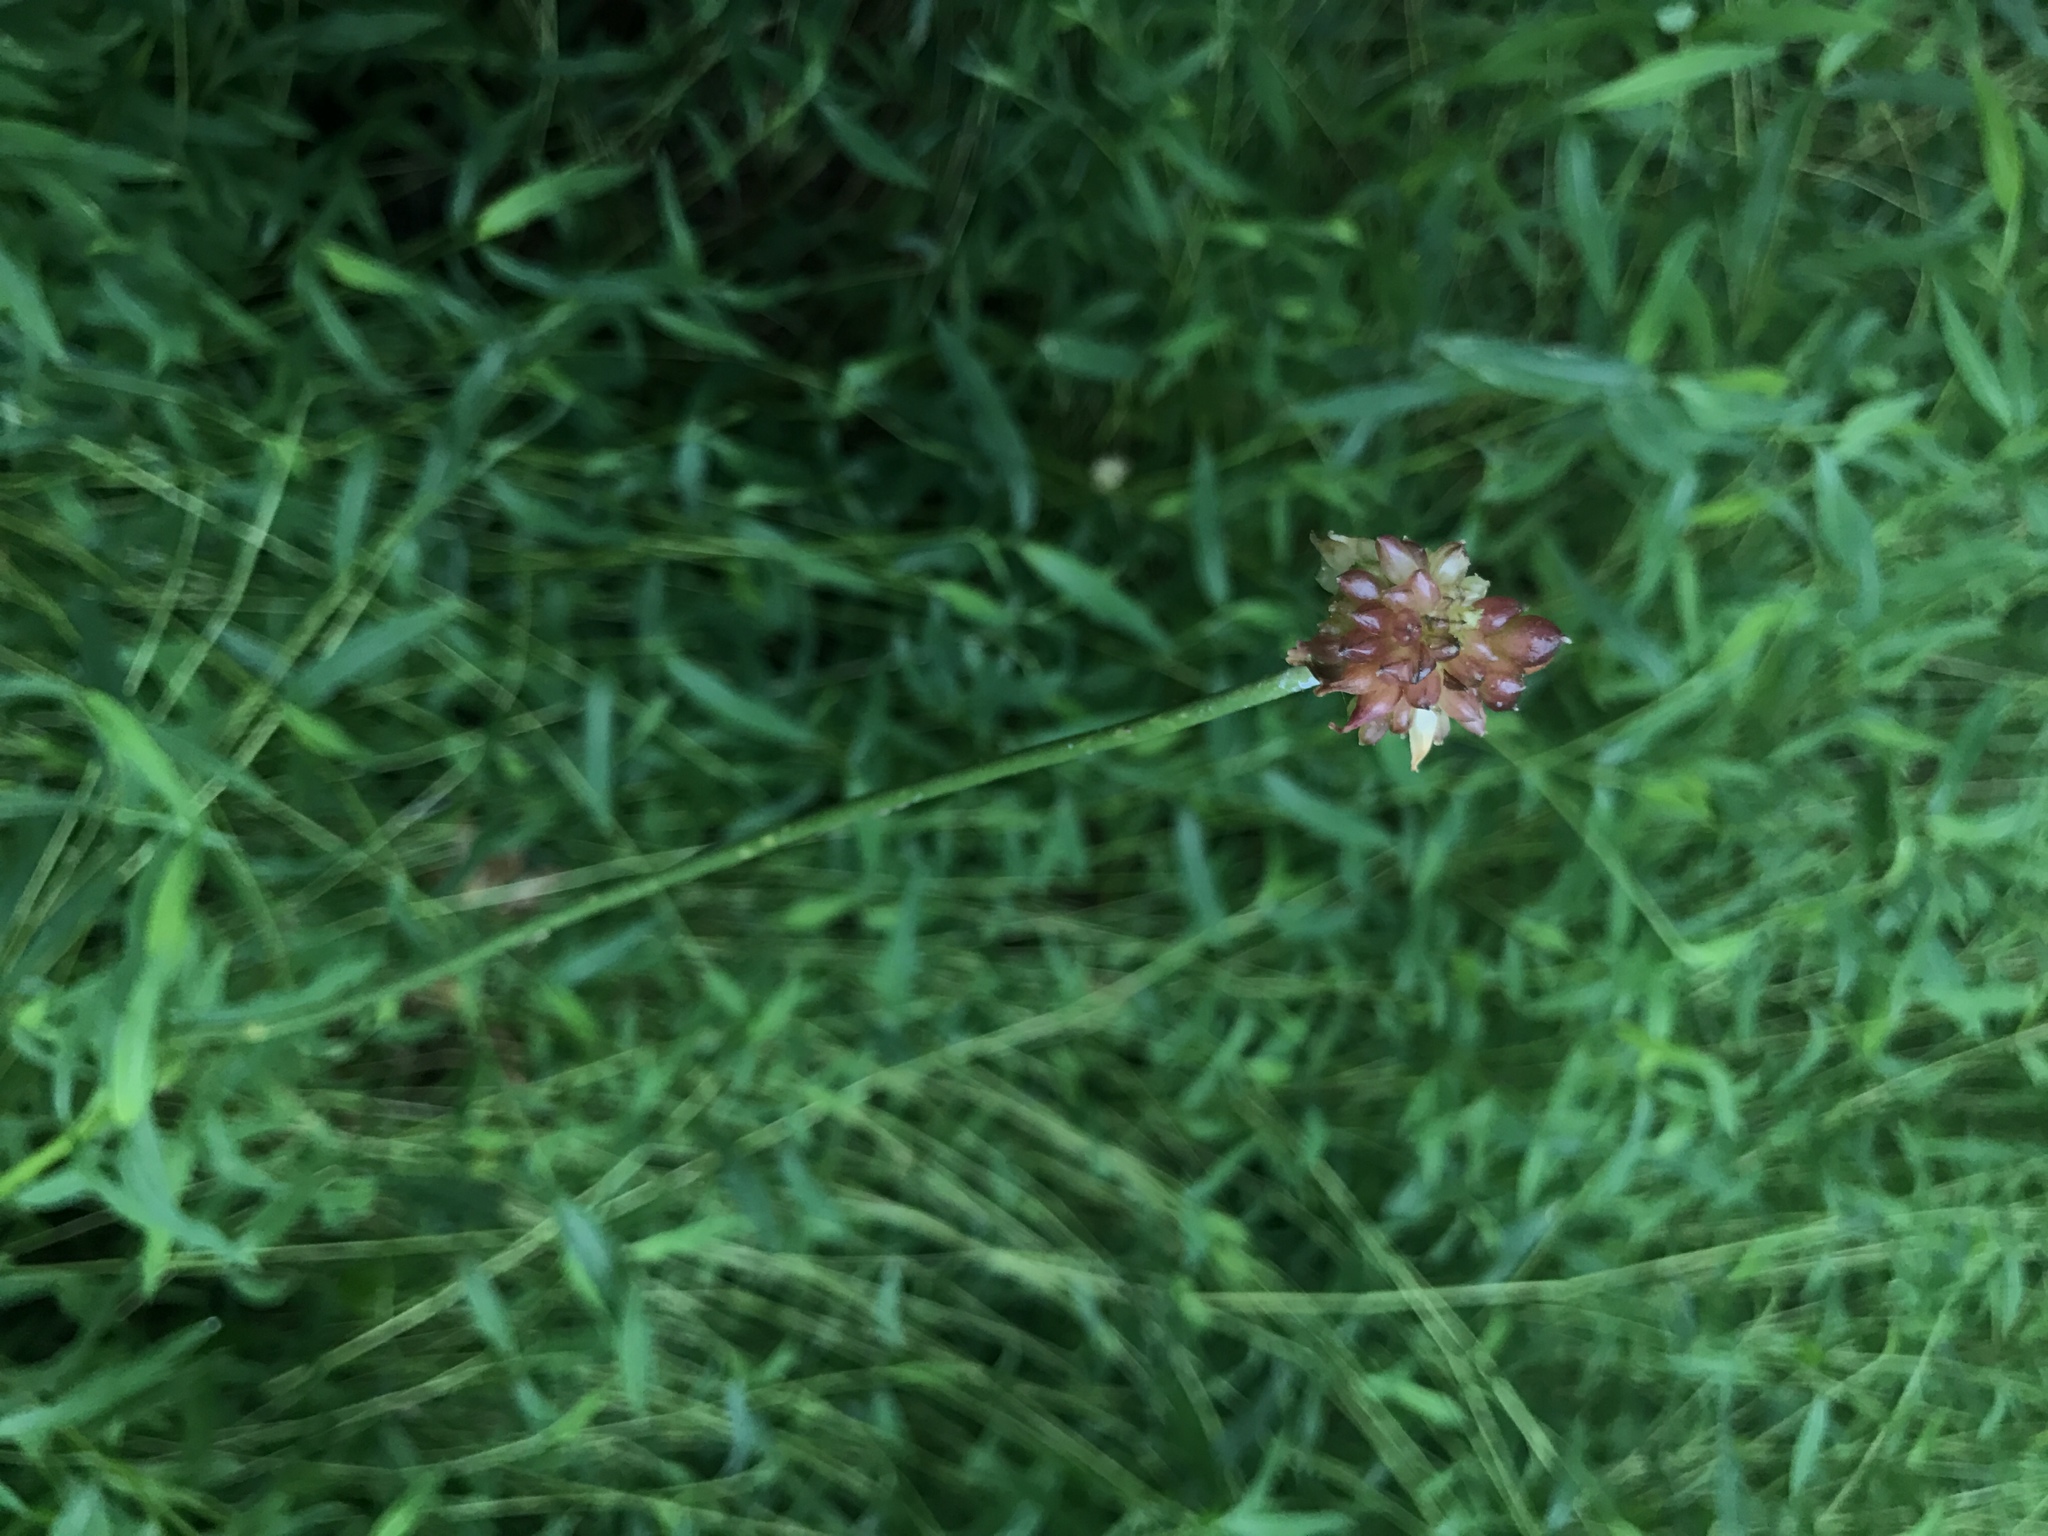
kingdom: Plantae
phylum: Tracheophyta
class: Liliopsida
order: Asparagales
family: Amaryllidaceae
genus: Allium
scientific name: Allium vineale
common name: Crow garlic
